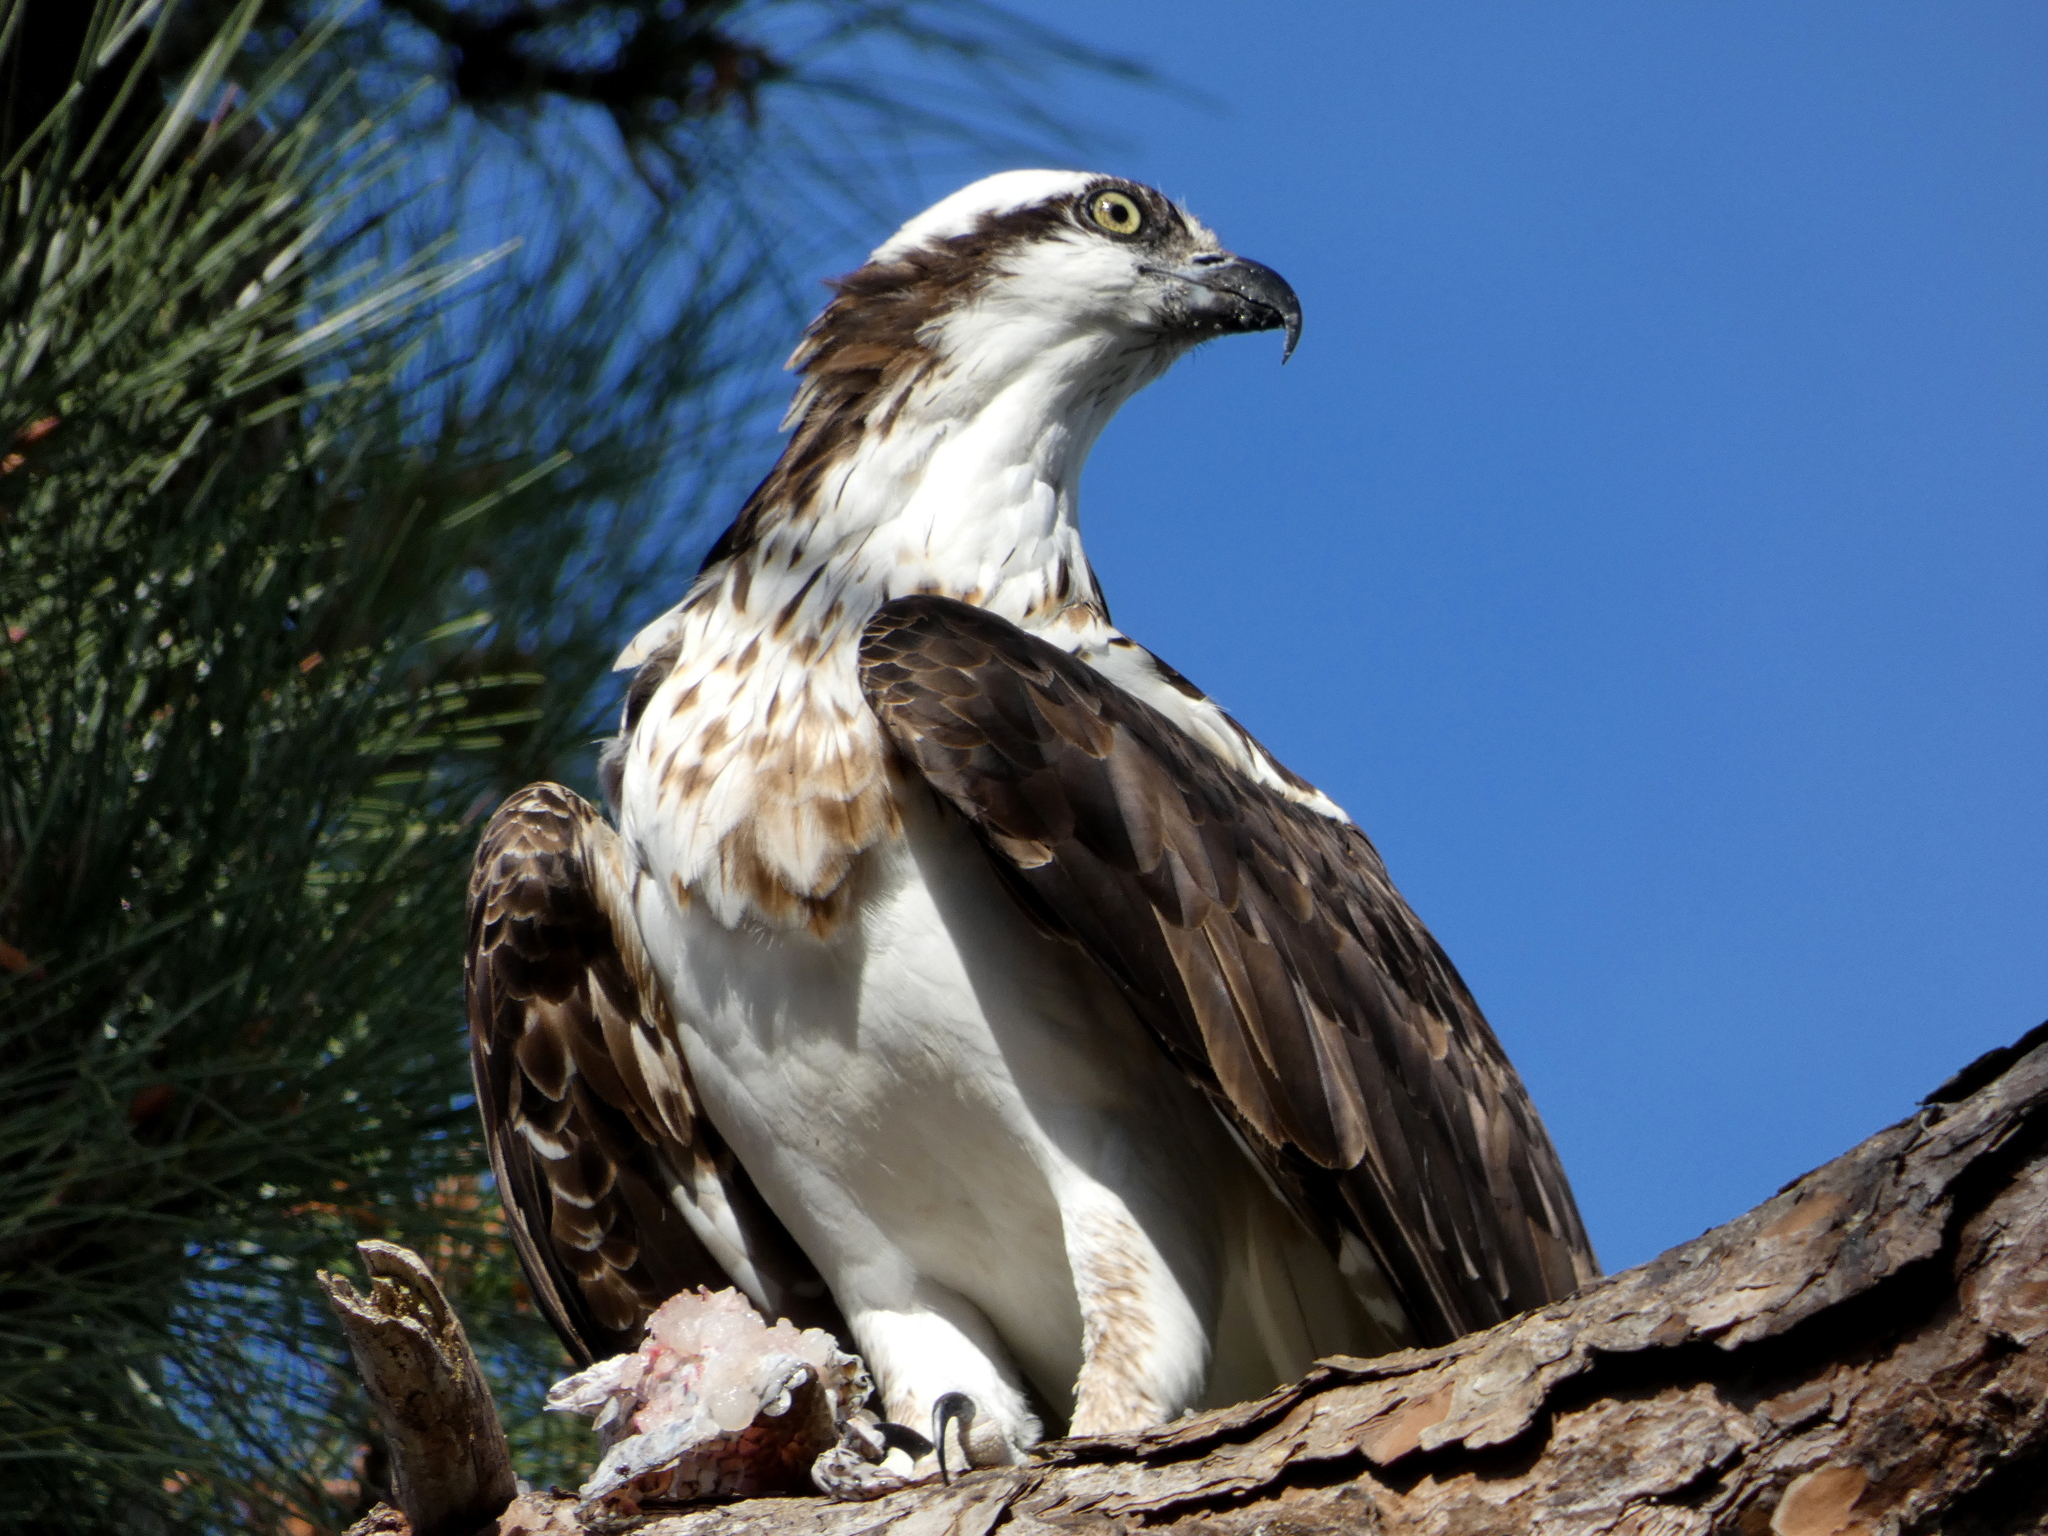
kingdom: Animalia
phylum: Chordata
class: Aves
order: Accipitriformes
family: Pandionidae
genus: Pandion
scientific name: Pandion haliaetus
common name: Osprey
